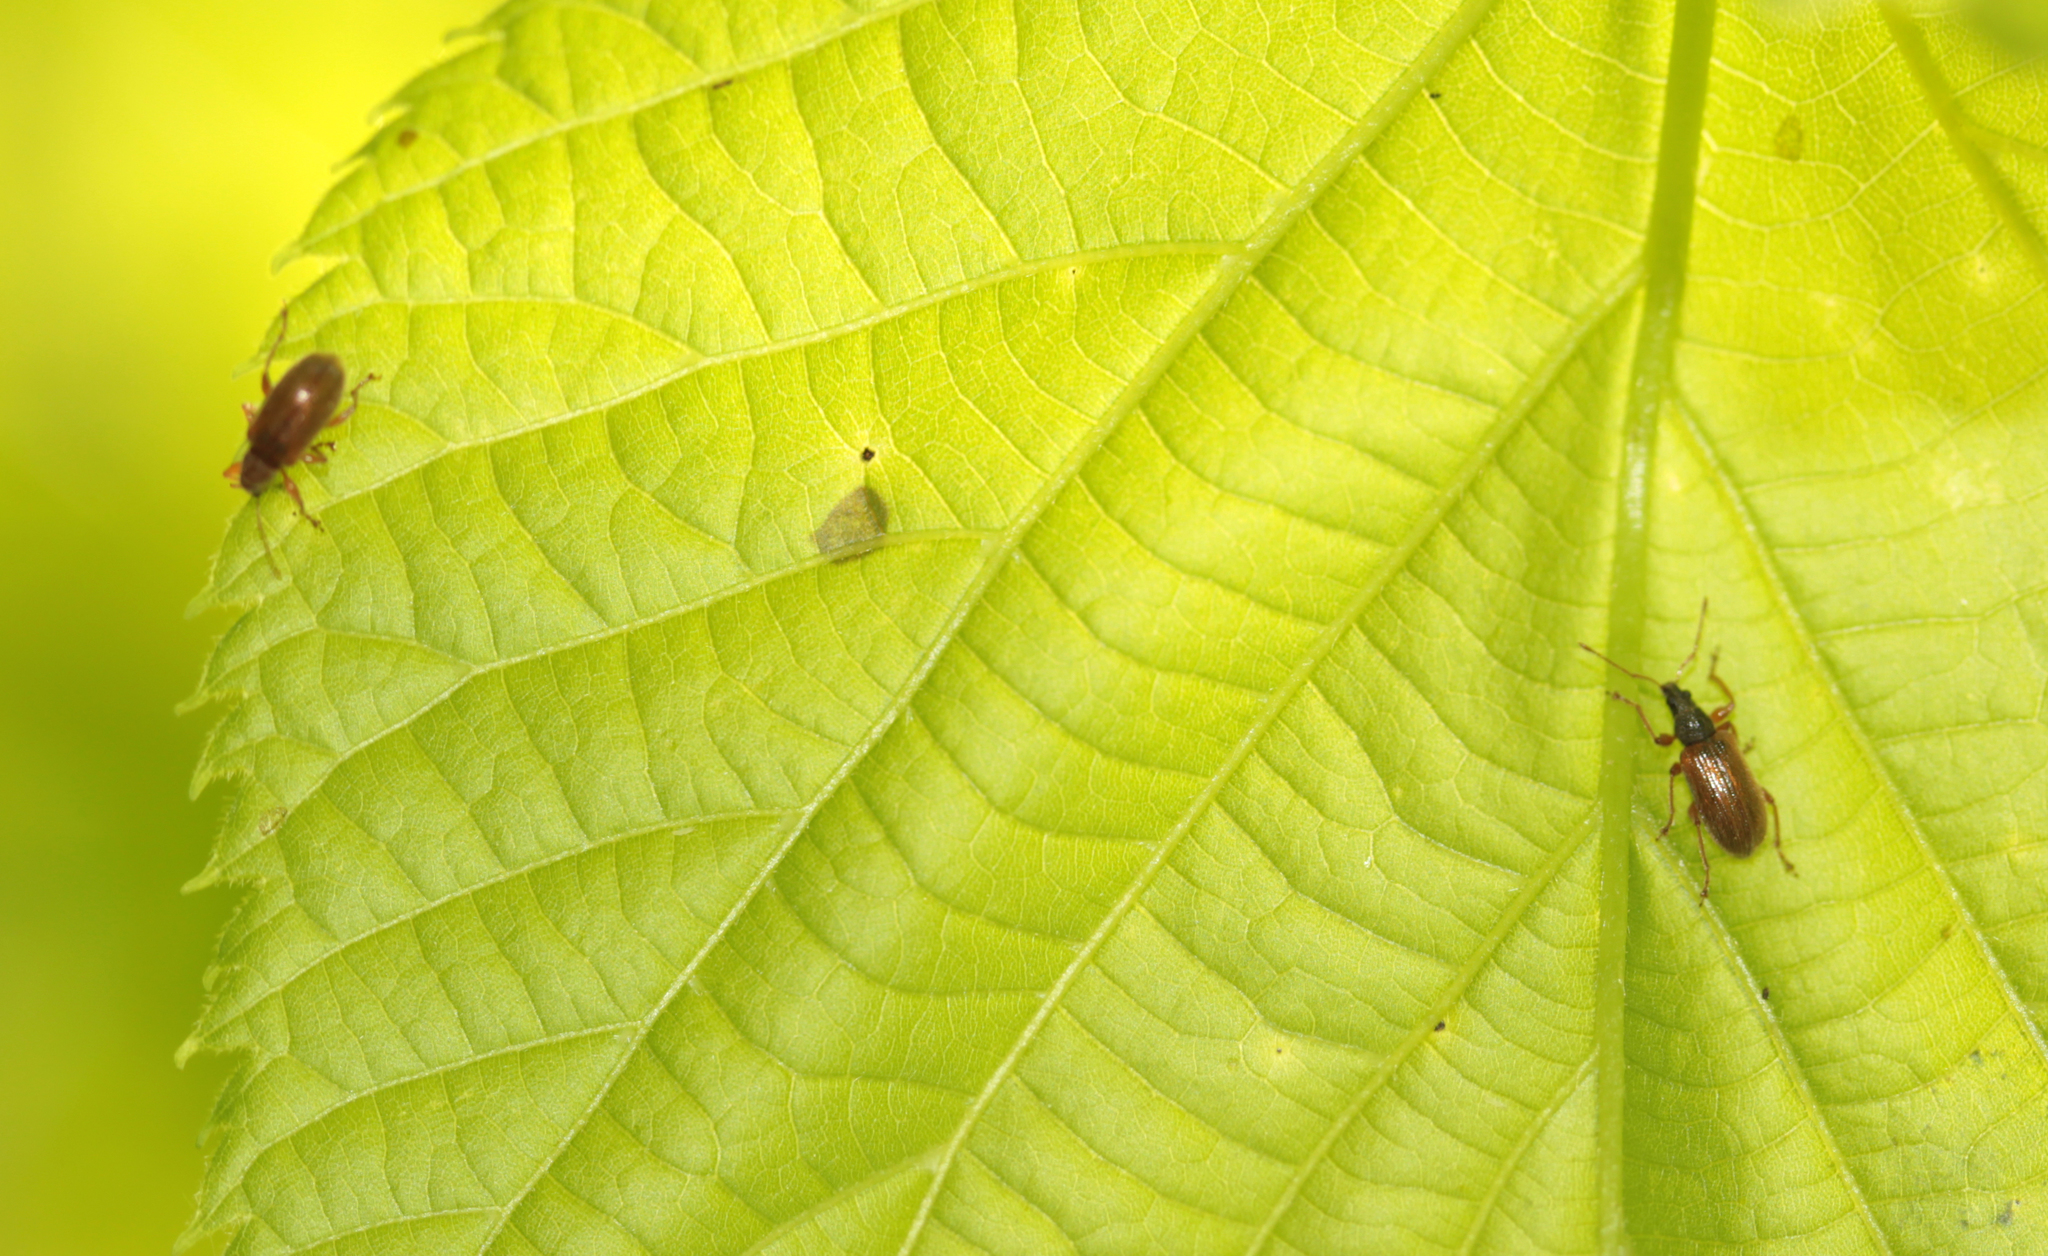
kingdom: Animalia
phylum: Arthropoda
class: Insecta
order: Coleoptera
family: Curculionidae
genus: Phyllobius
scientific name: Phyllobius oblongus
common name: Brown leaf weevil
